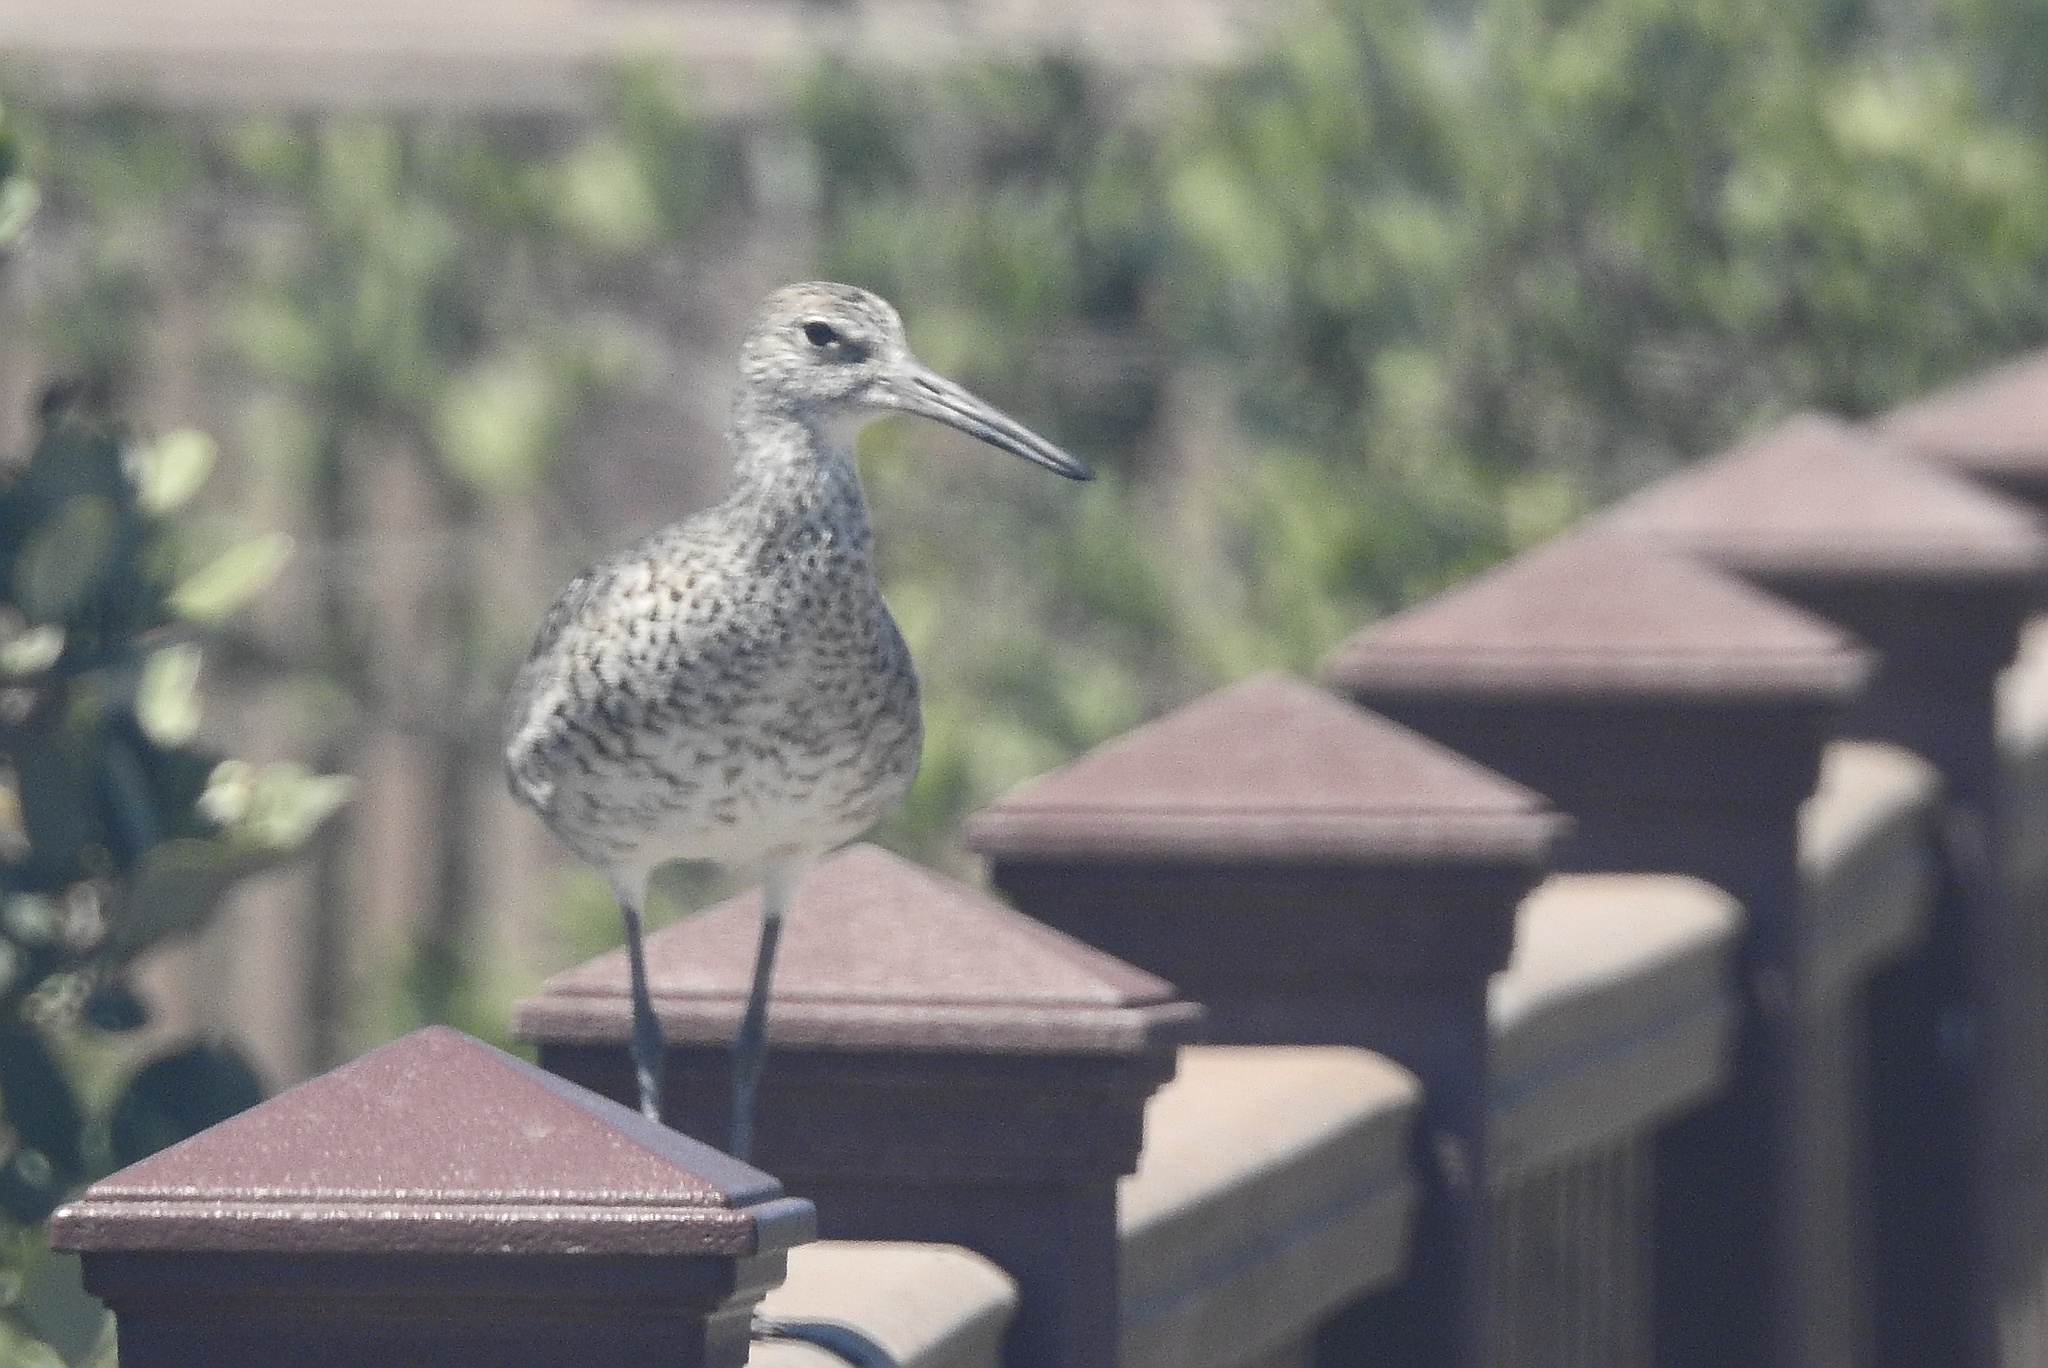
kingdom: Animalia
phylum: Chordata
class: Aves
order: Charadriiformes
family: Scolopacidae
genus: Tringa
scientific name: Tringa semipalmata
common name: Willet
